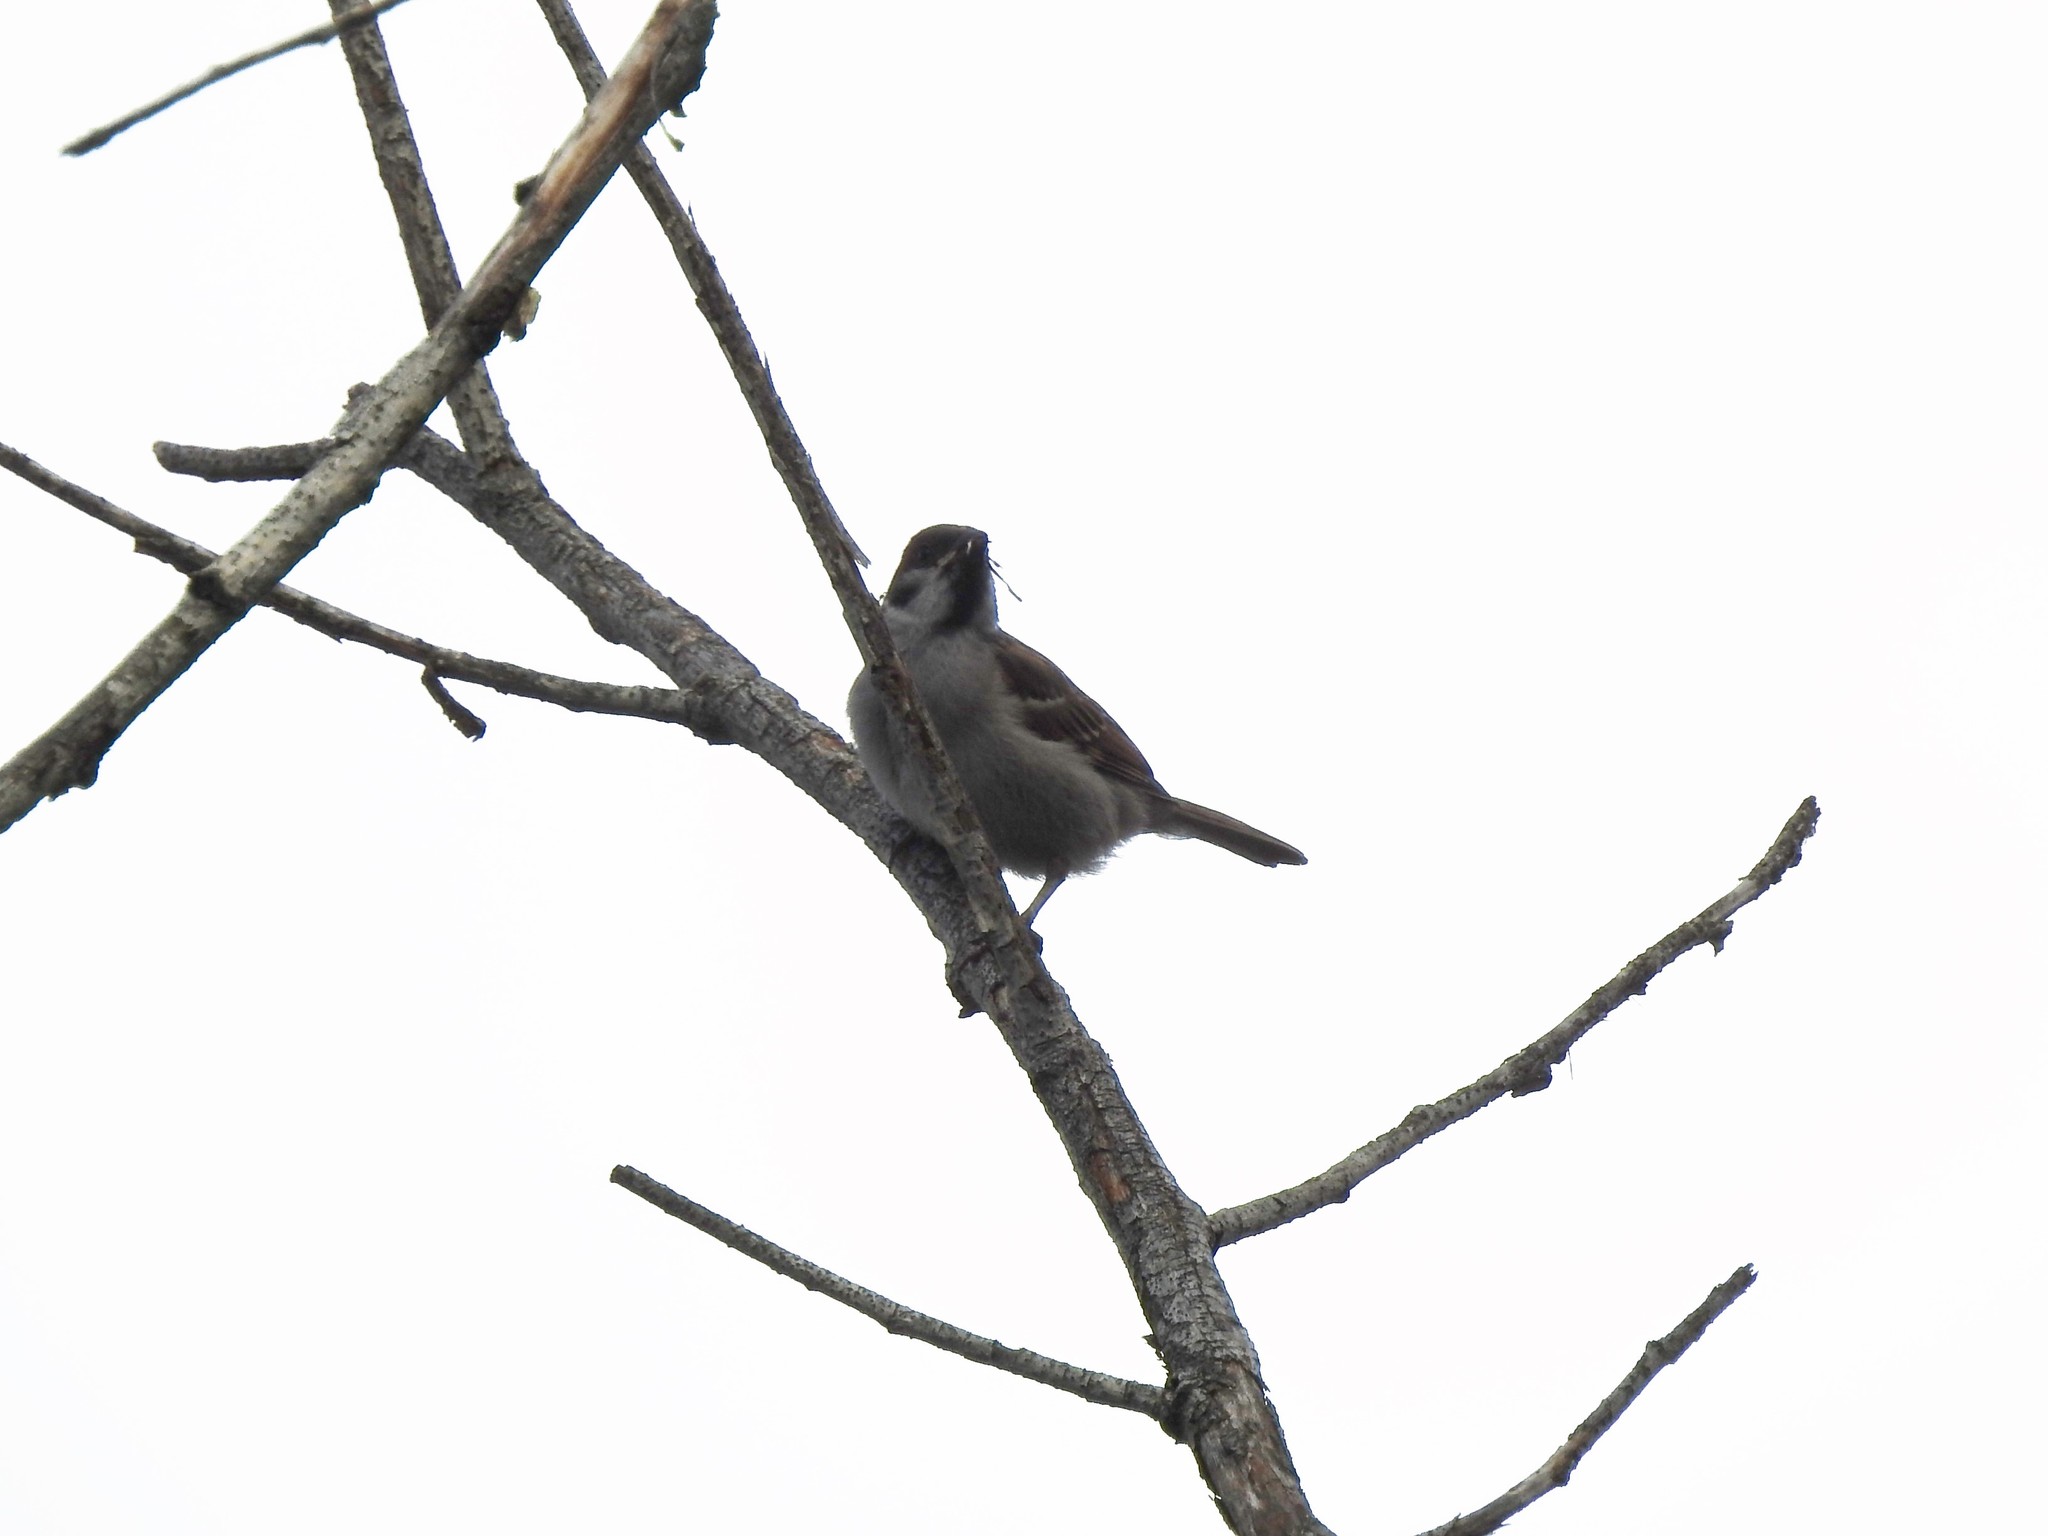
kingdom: Animalia
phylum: Chordata
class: Aves
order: Passeriformes
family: Passeridae
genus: Passer
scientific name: Passer montanus
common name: Eurasian tree sparrow
